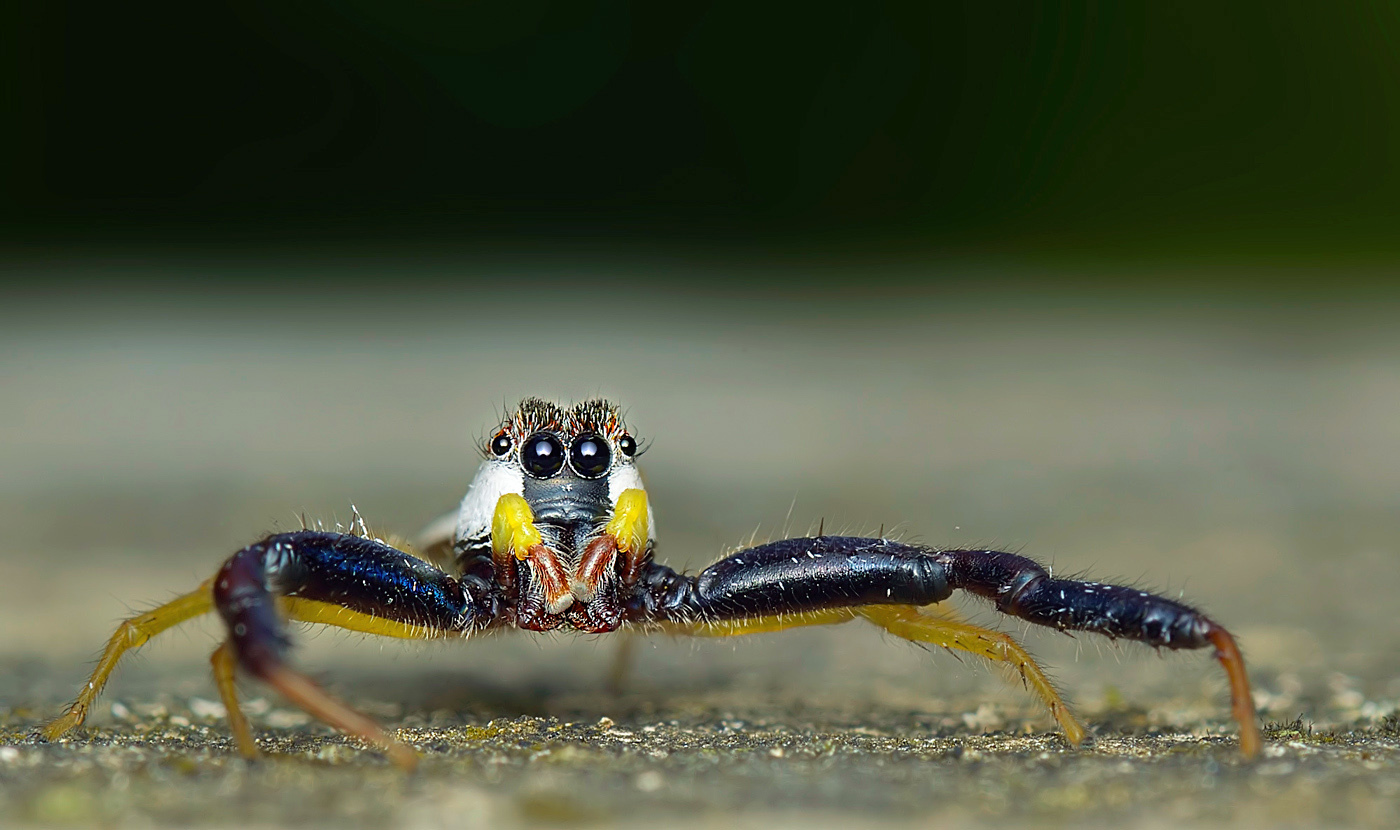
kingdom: Animalia
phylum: Arthropoda
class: Arachnida
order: Araneae
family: Salticidae
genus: Epocilla
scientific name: Epocilla calcarata
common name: Jumping spider
